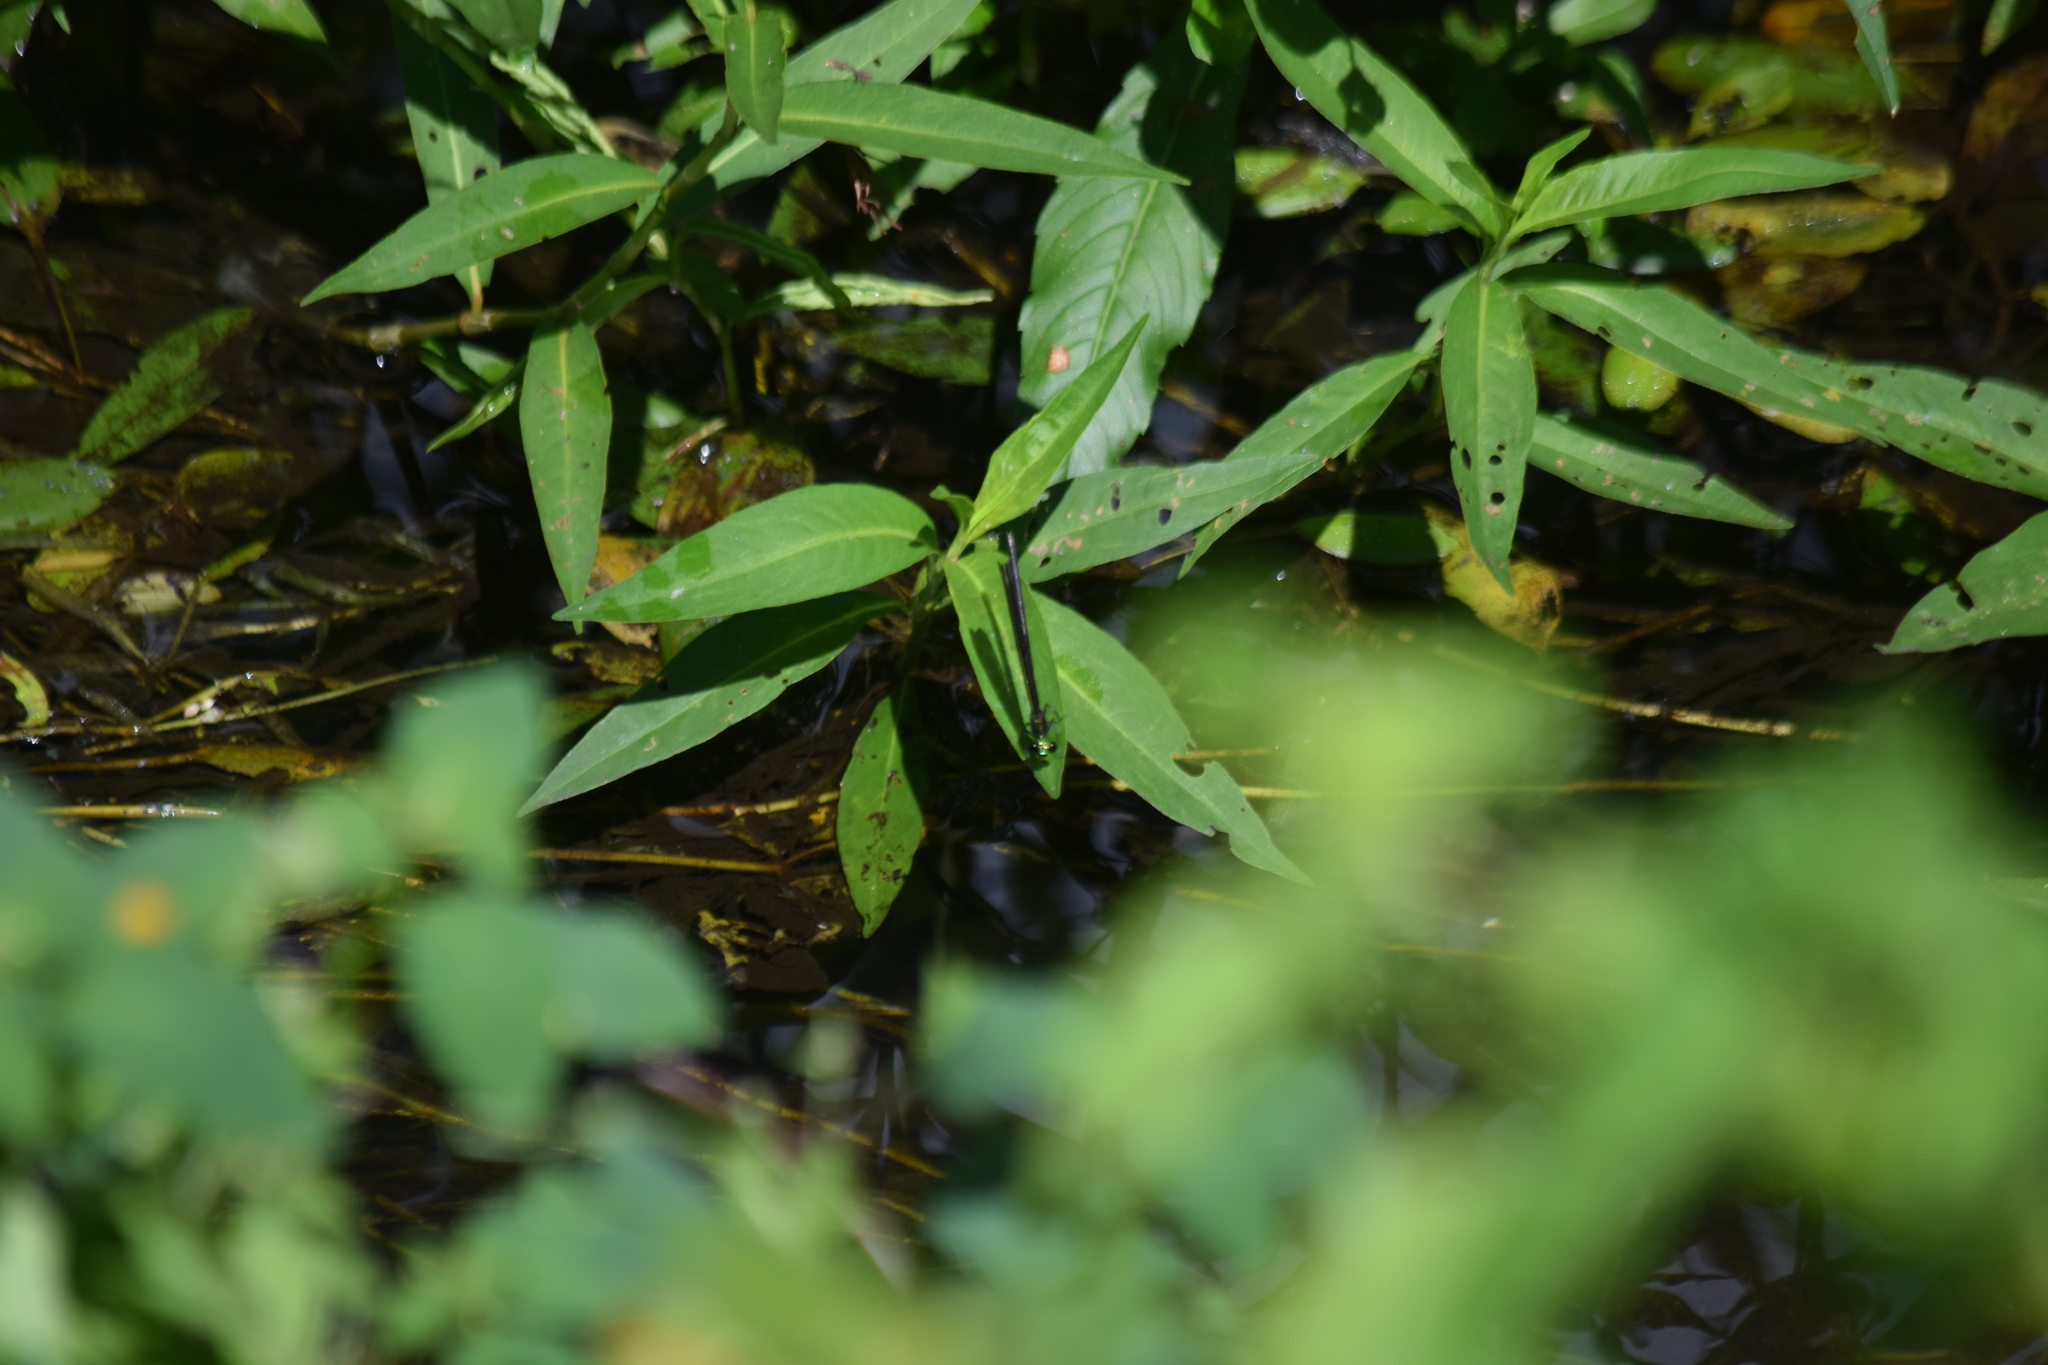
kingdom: Animalia
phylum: Arthropoda
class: Insecta
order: Odonata
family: Calopterygidae
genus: Calopteryx
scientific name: Calopteryx maculata
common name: Ebony jewelwing
